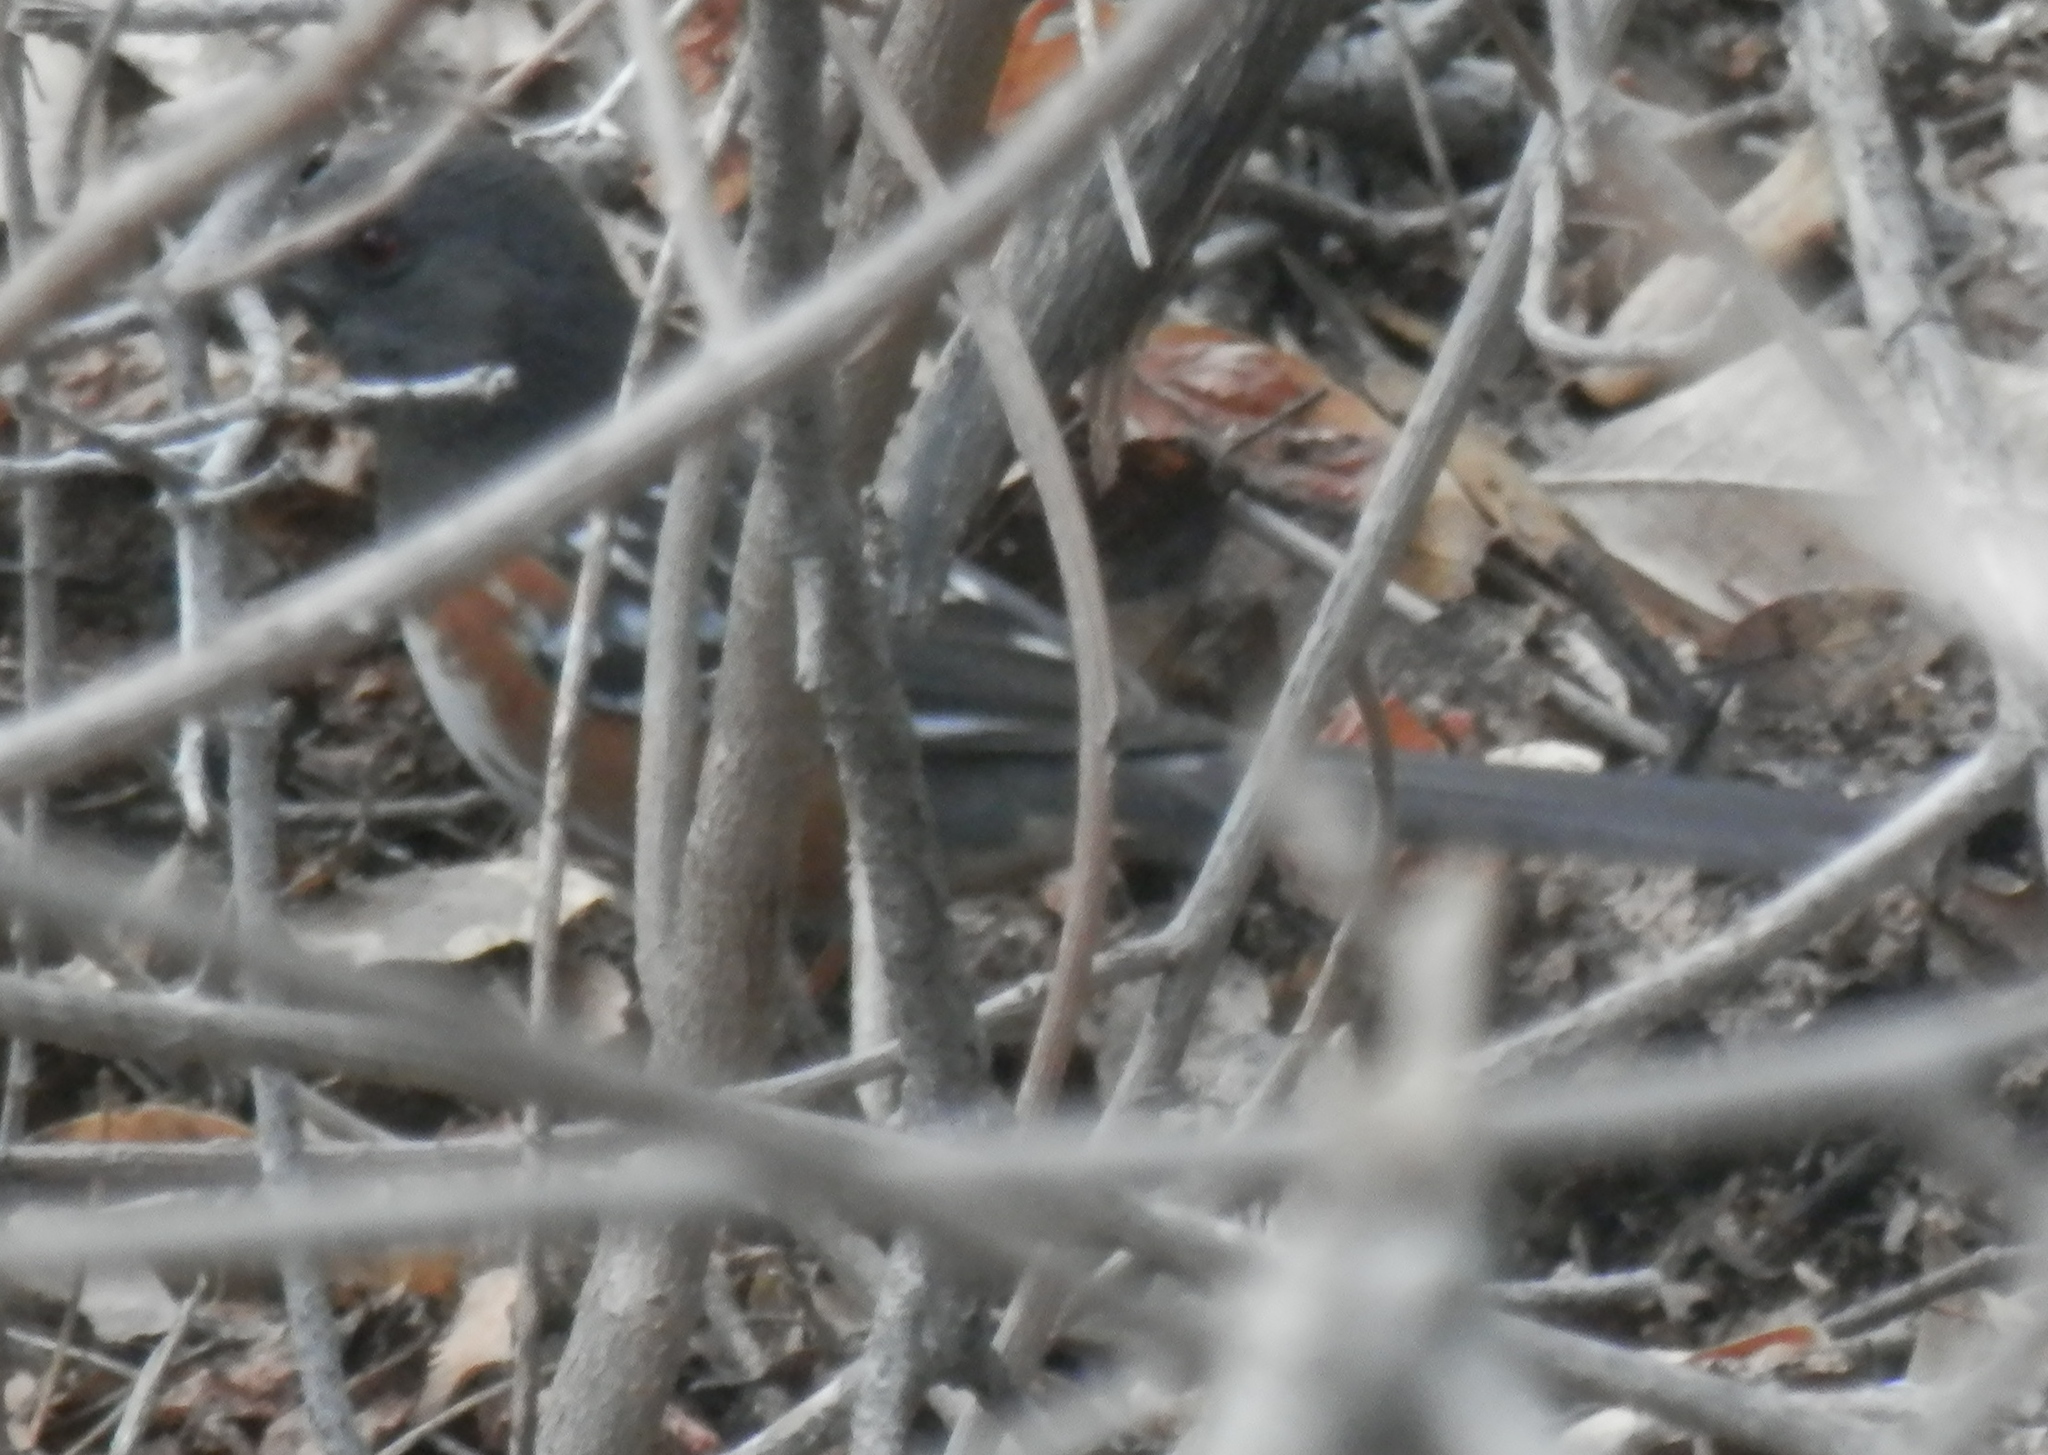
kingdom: Animalia
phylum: Chordata
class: Aves
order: Passeriformes
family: Passerellidae
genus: Pipilo
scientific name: Pipilo maculatus
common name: Spotted towhee
